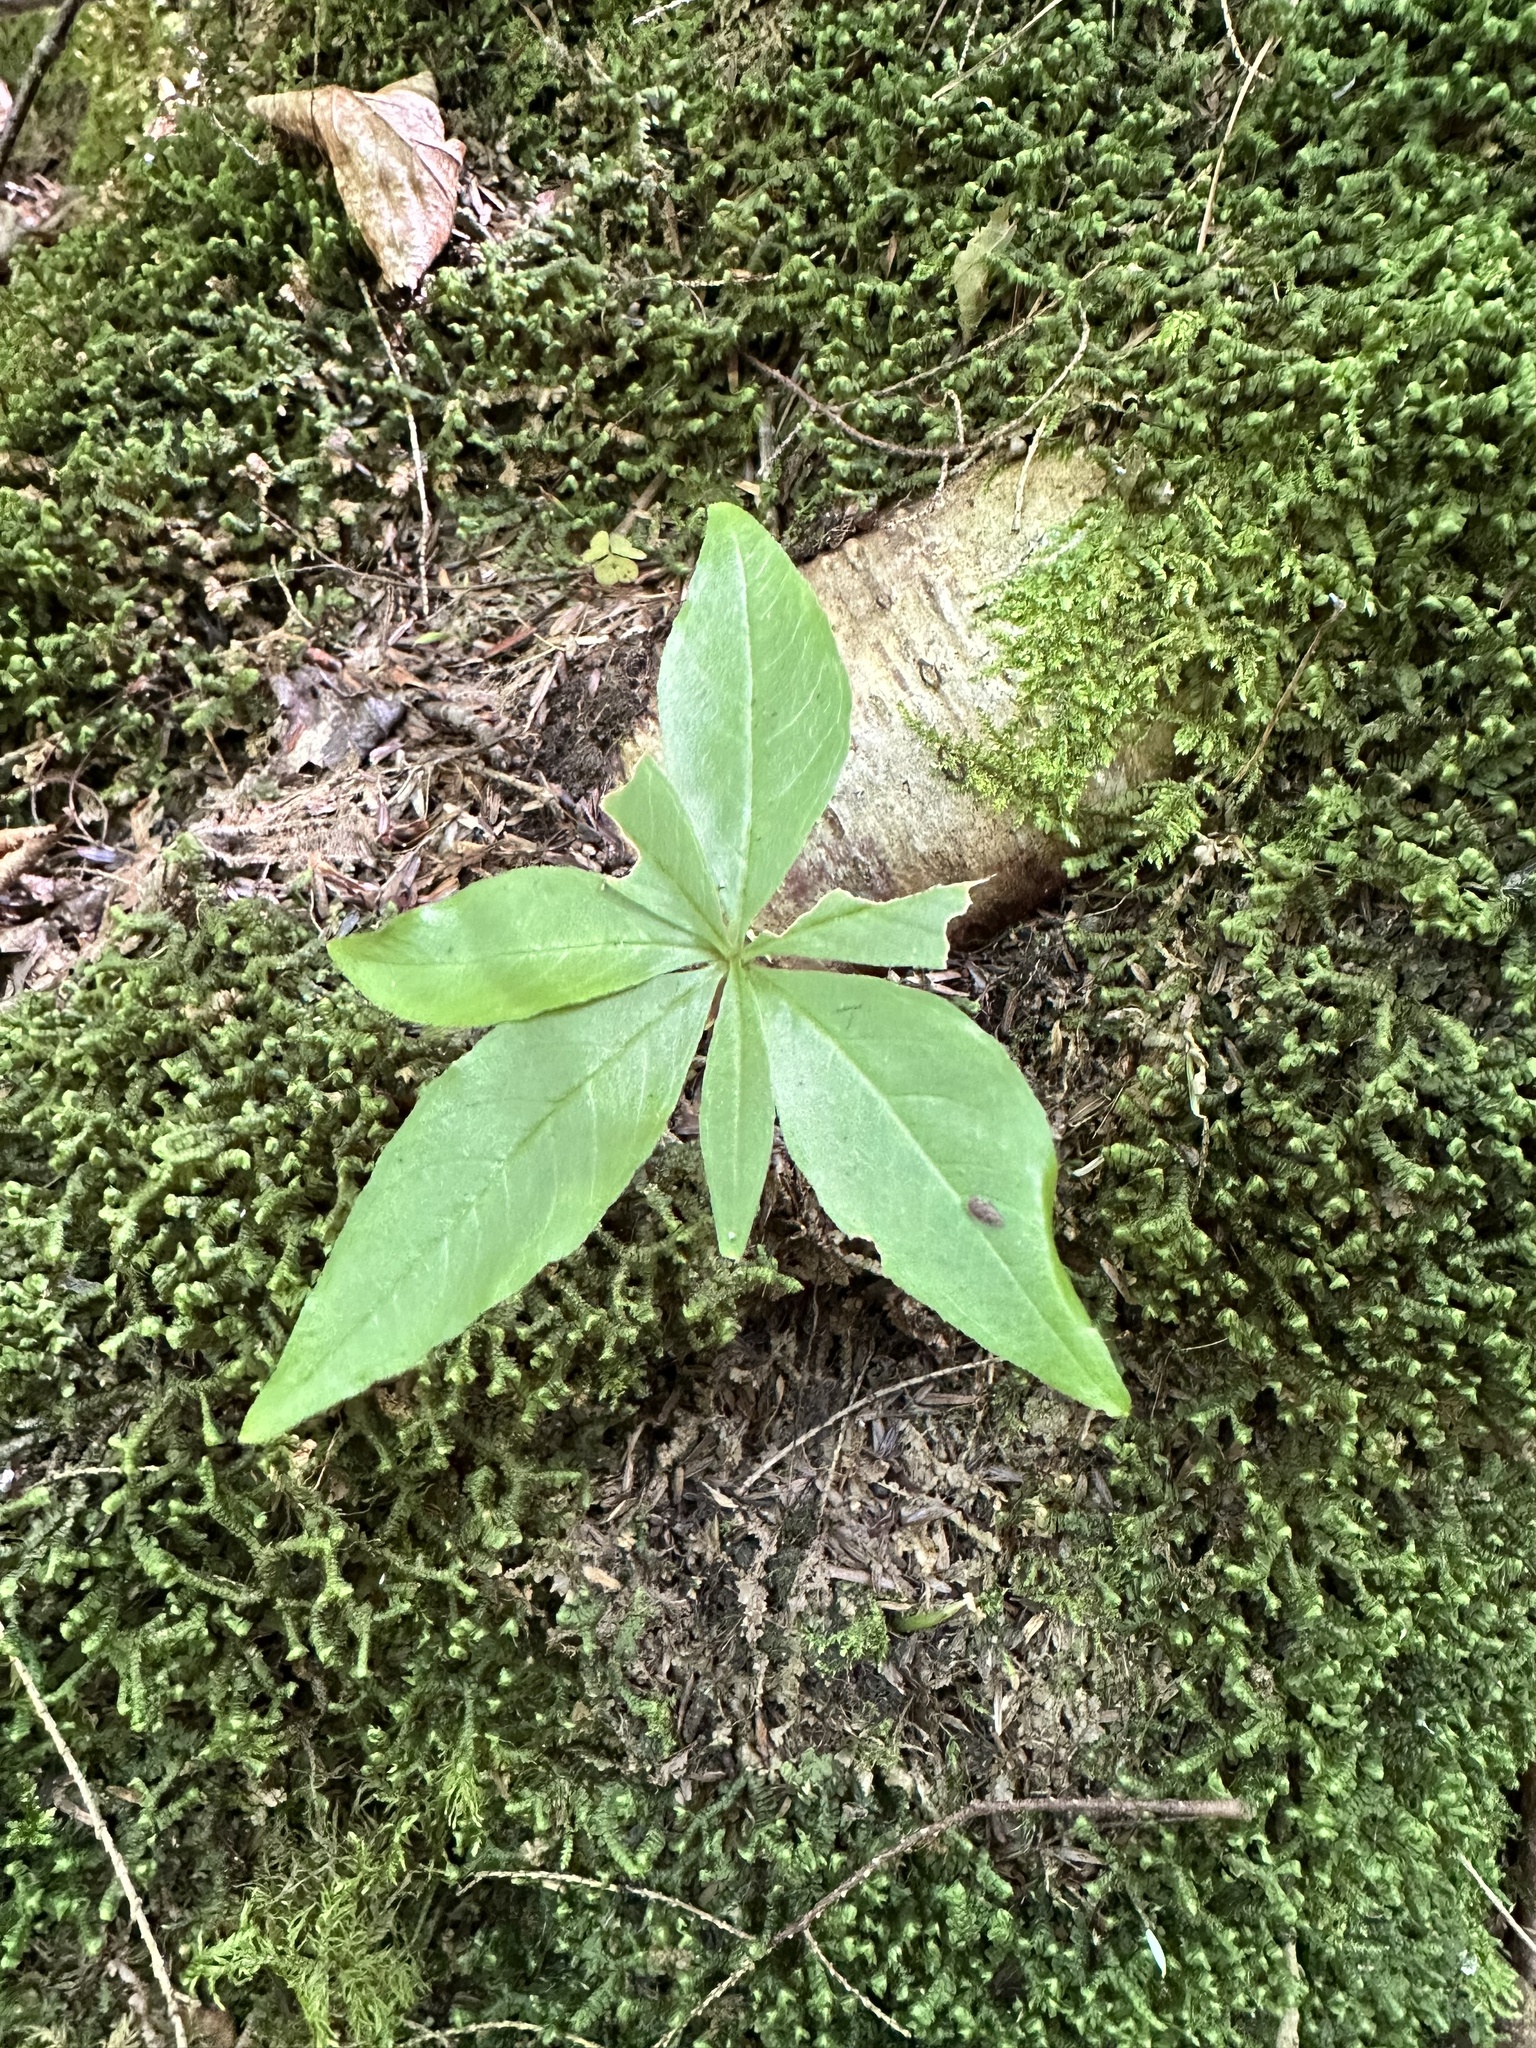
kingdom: Plantae
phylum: Tracheophyta
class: Magnoliopsida
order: Ericales
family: Primulaceae
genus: Lysimachia
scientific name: Lysimachia borealis
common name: American starflower
